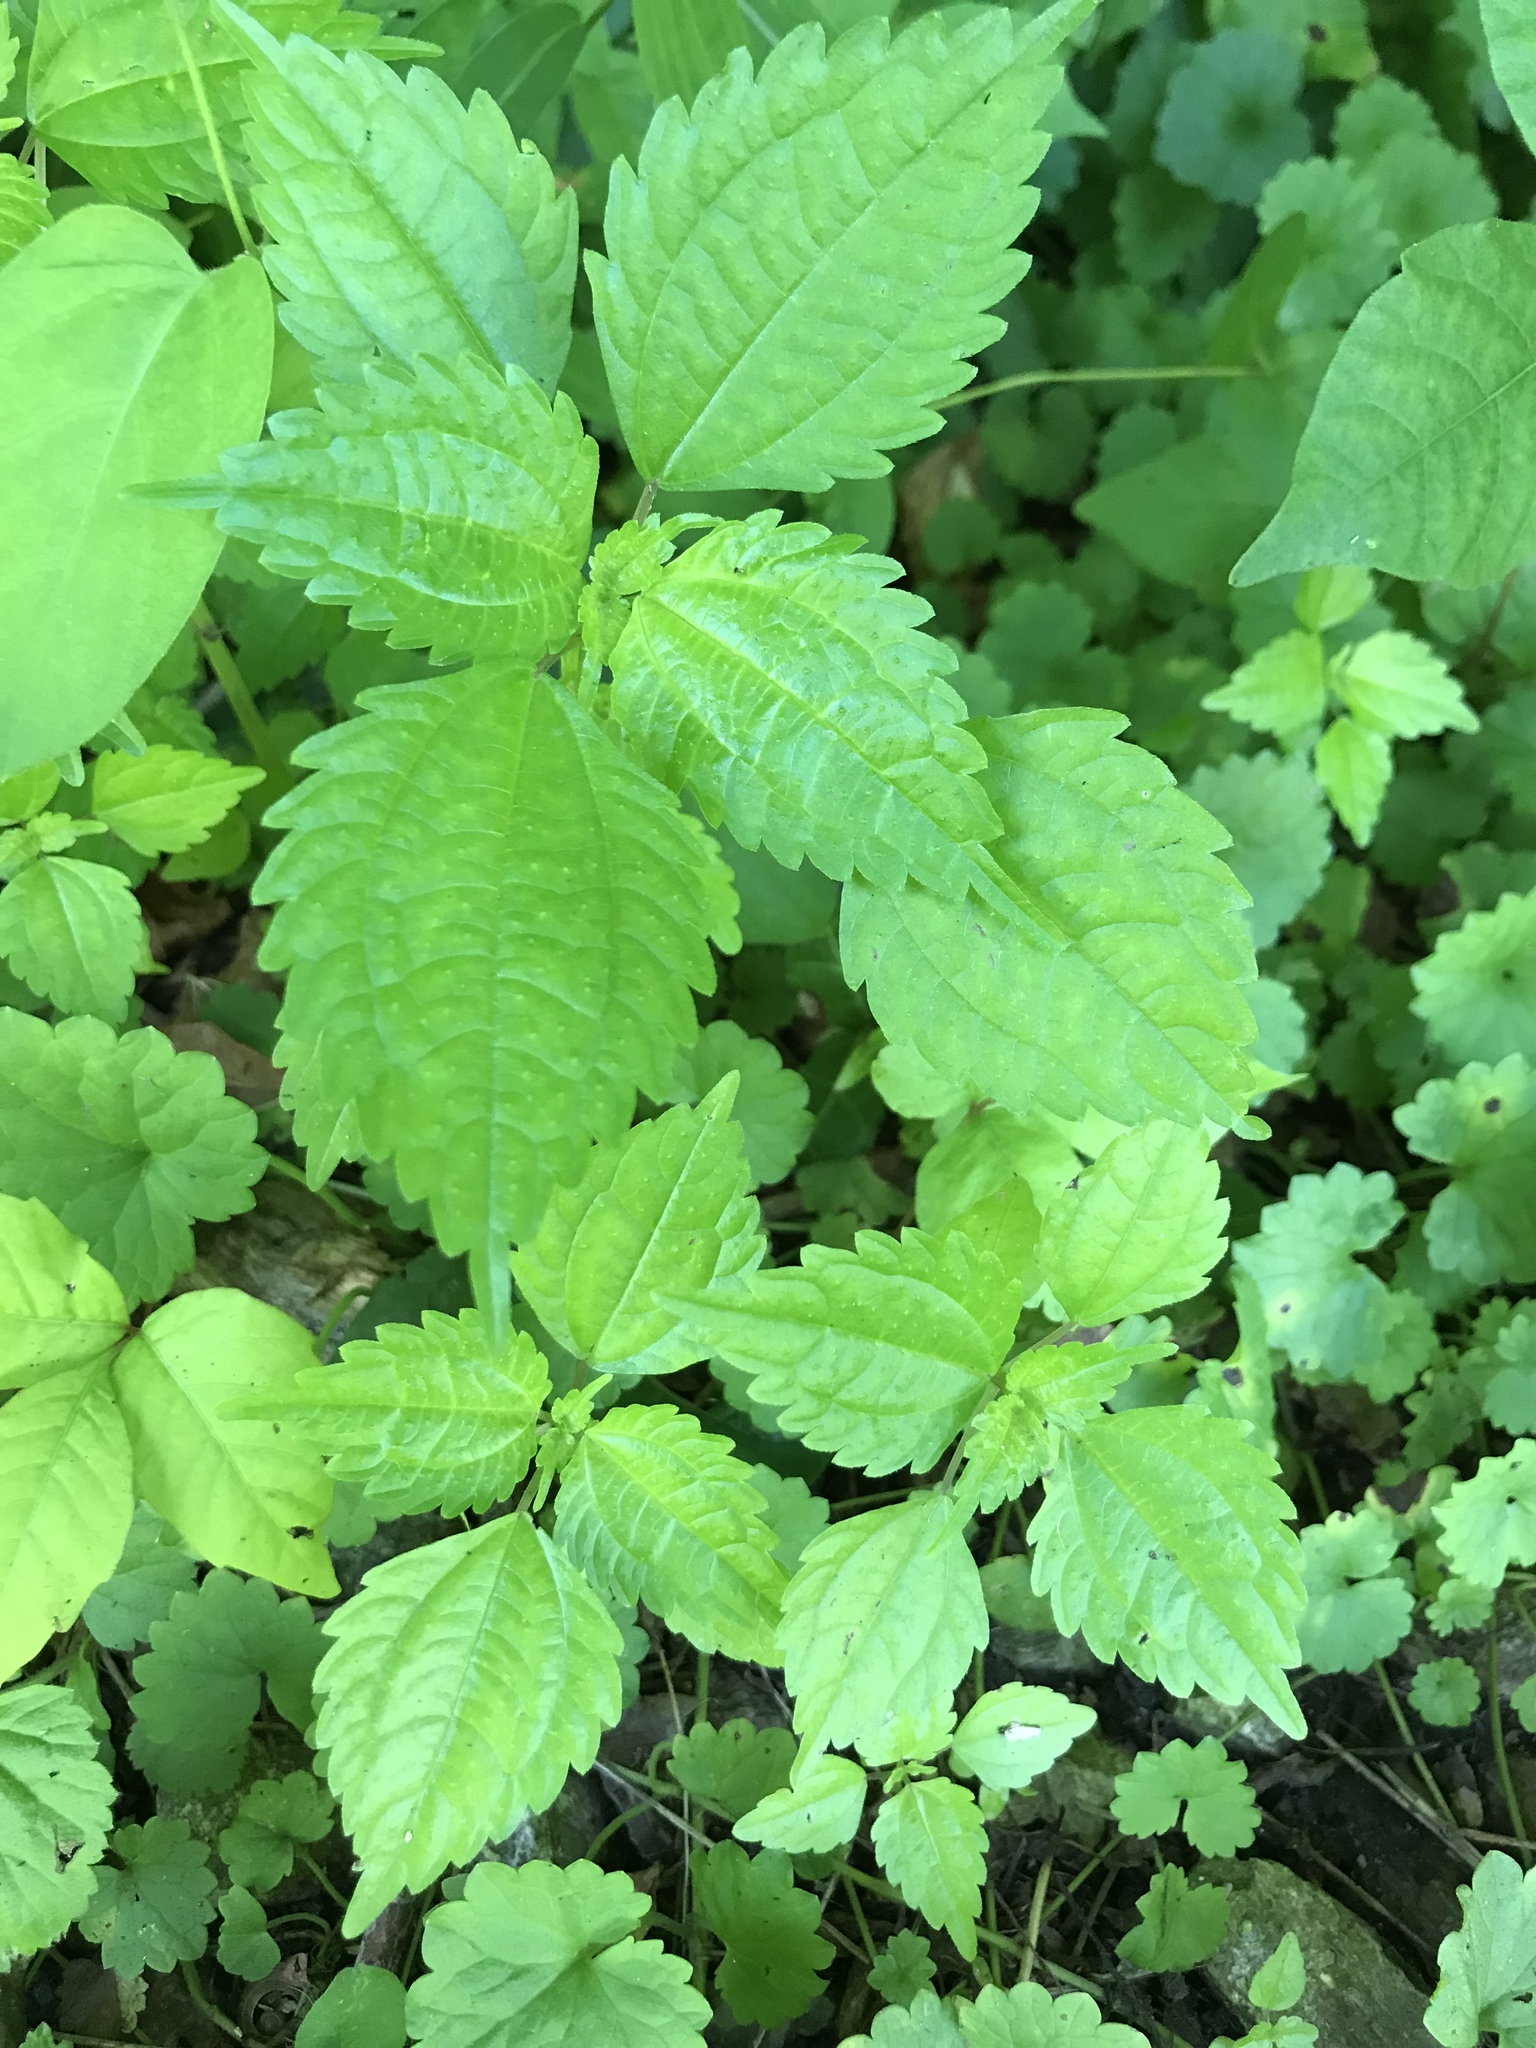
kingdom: Plantae
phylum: Tracheophyta
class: Magnoliopsida
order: Rosales
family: Urticaceae
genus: Pilea
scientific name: Pilea pumila
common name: Clearweed
